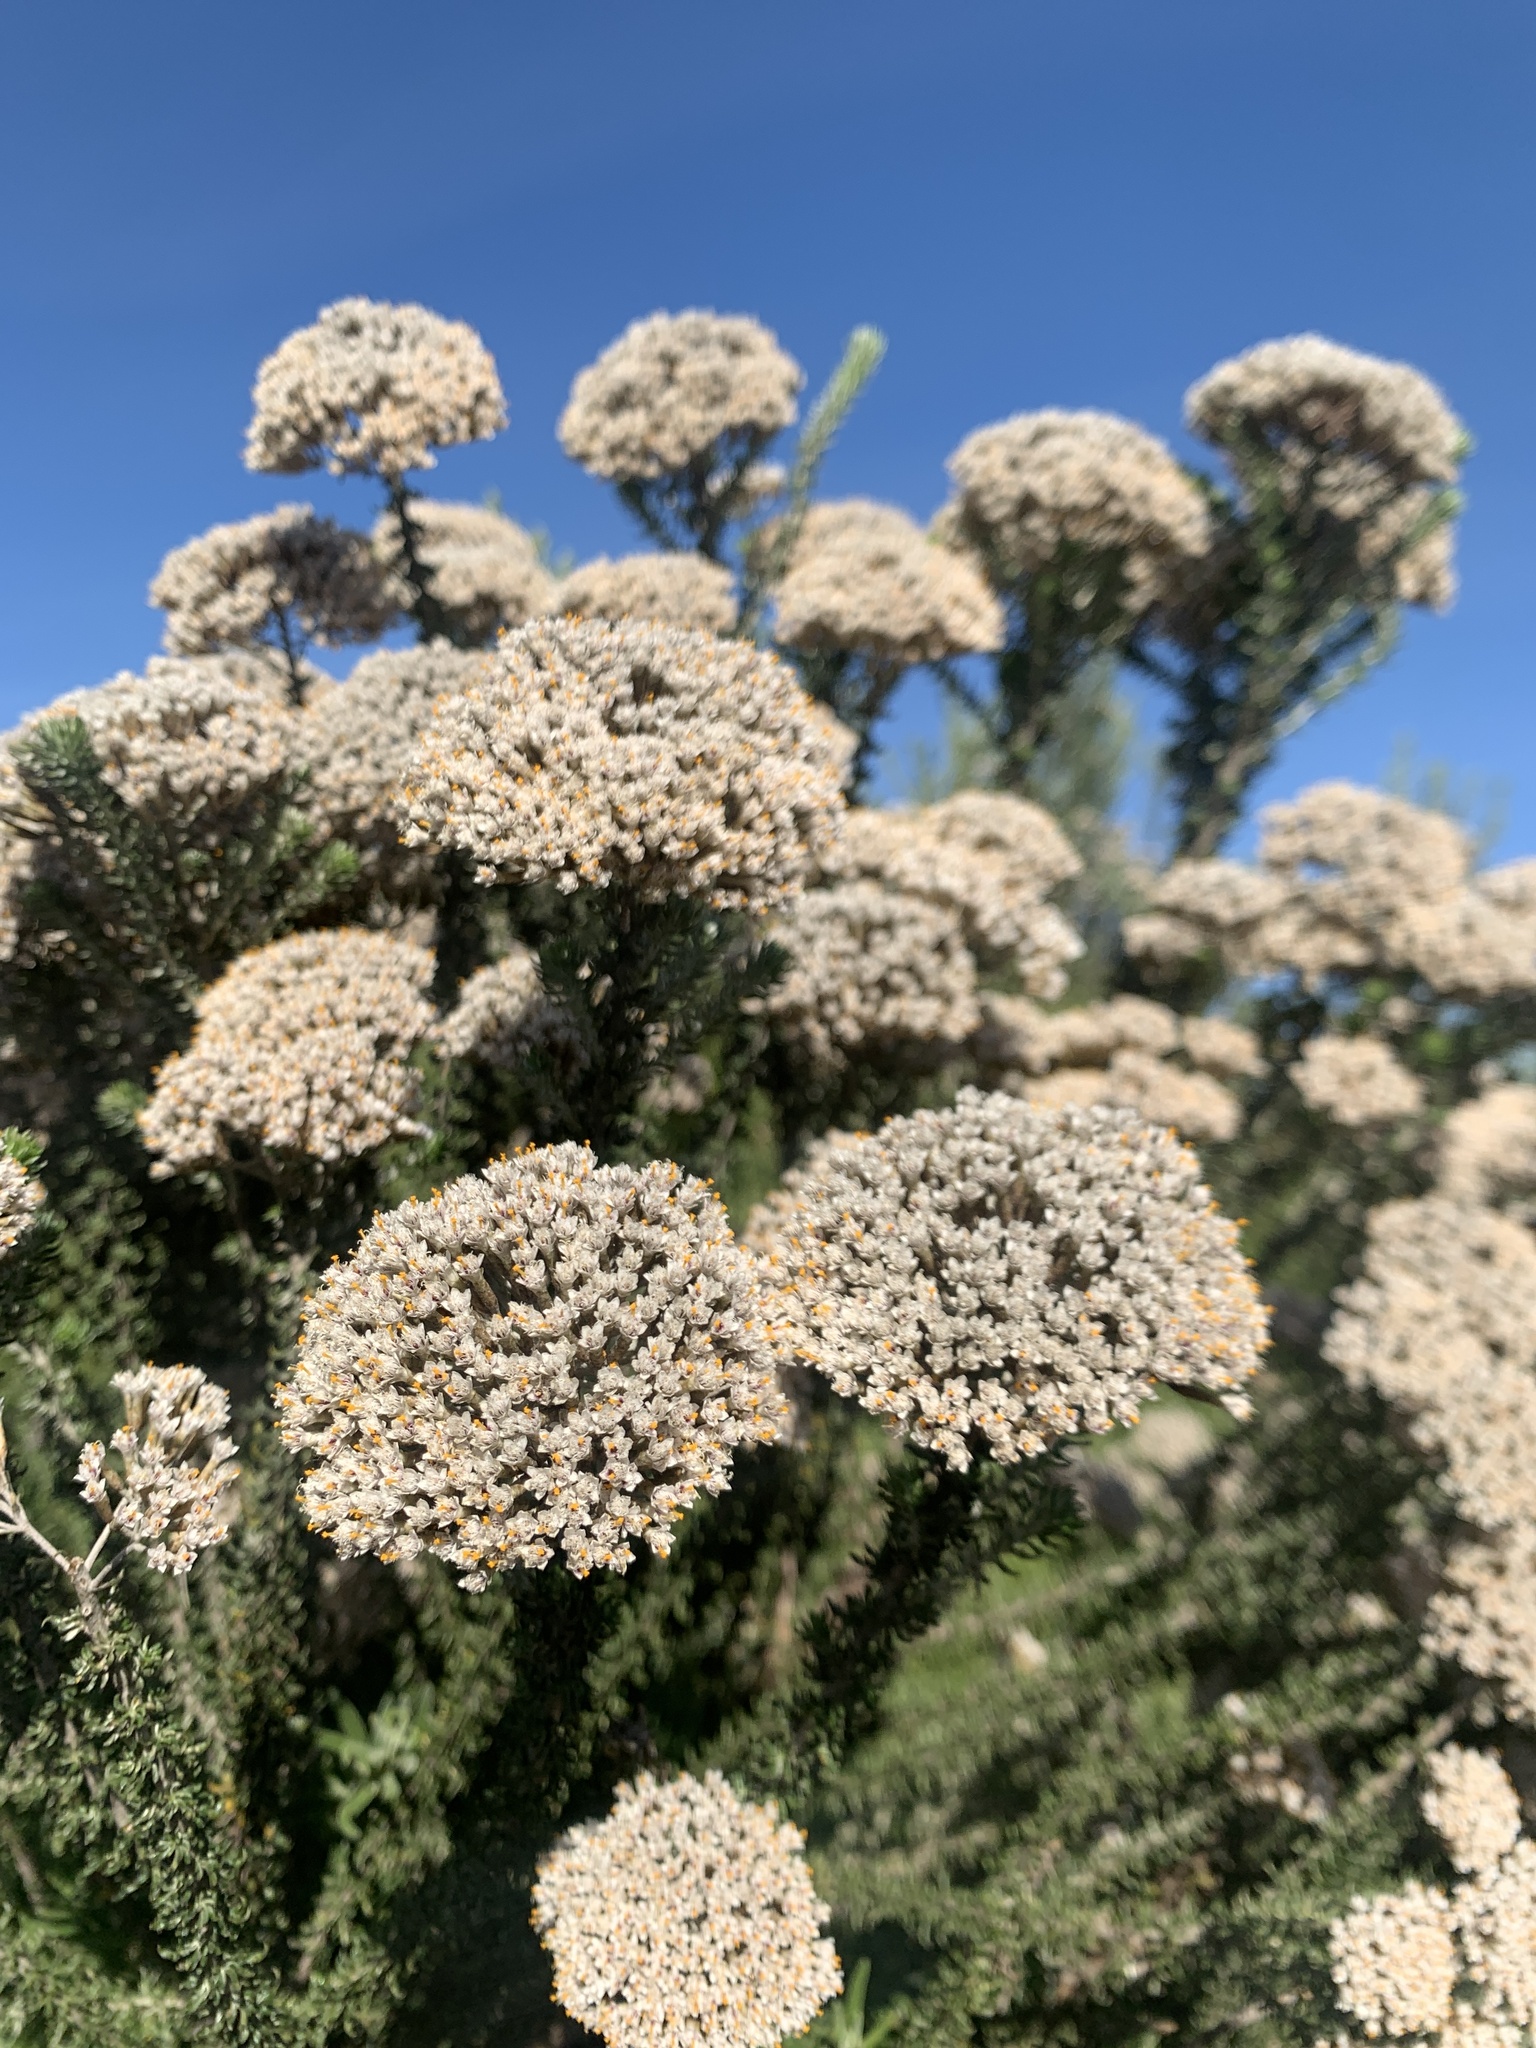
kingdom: Plantae
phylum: Tracheophyta
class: Magnoliopsida
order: Asterales
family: Asteraceae
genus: Metalasia
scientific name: Metalasia muricata
